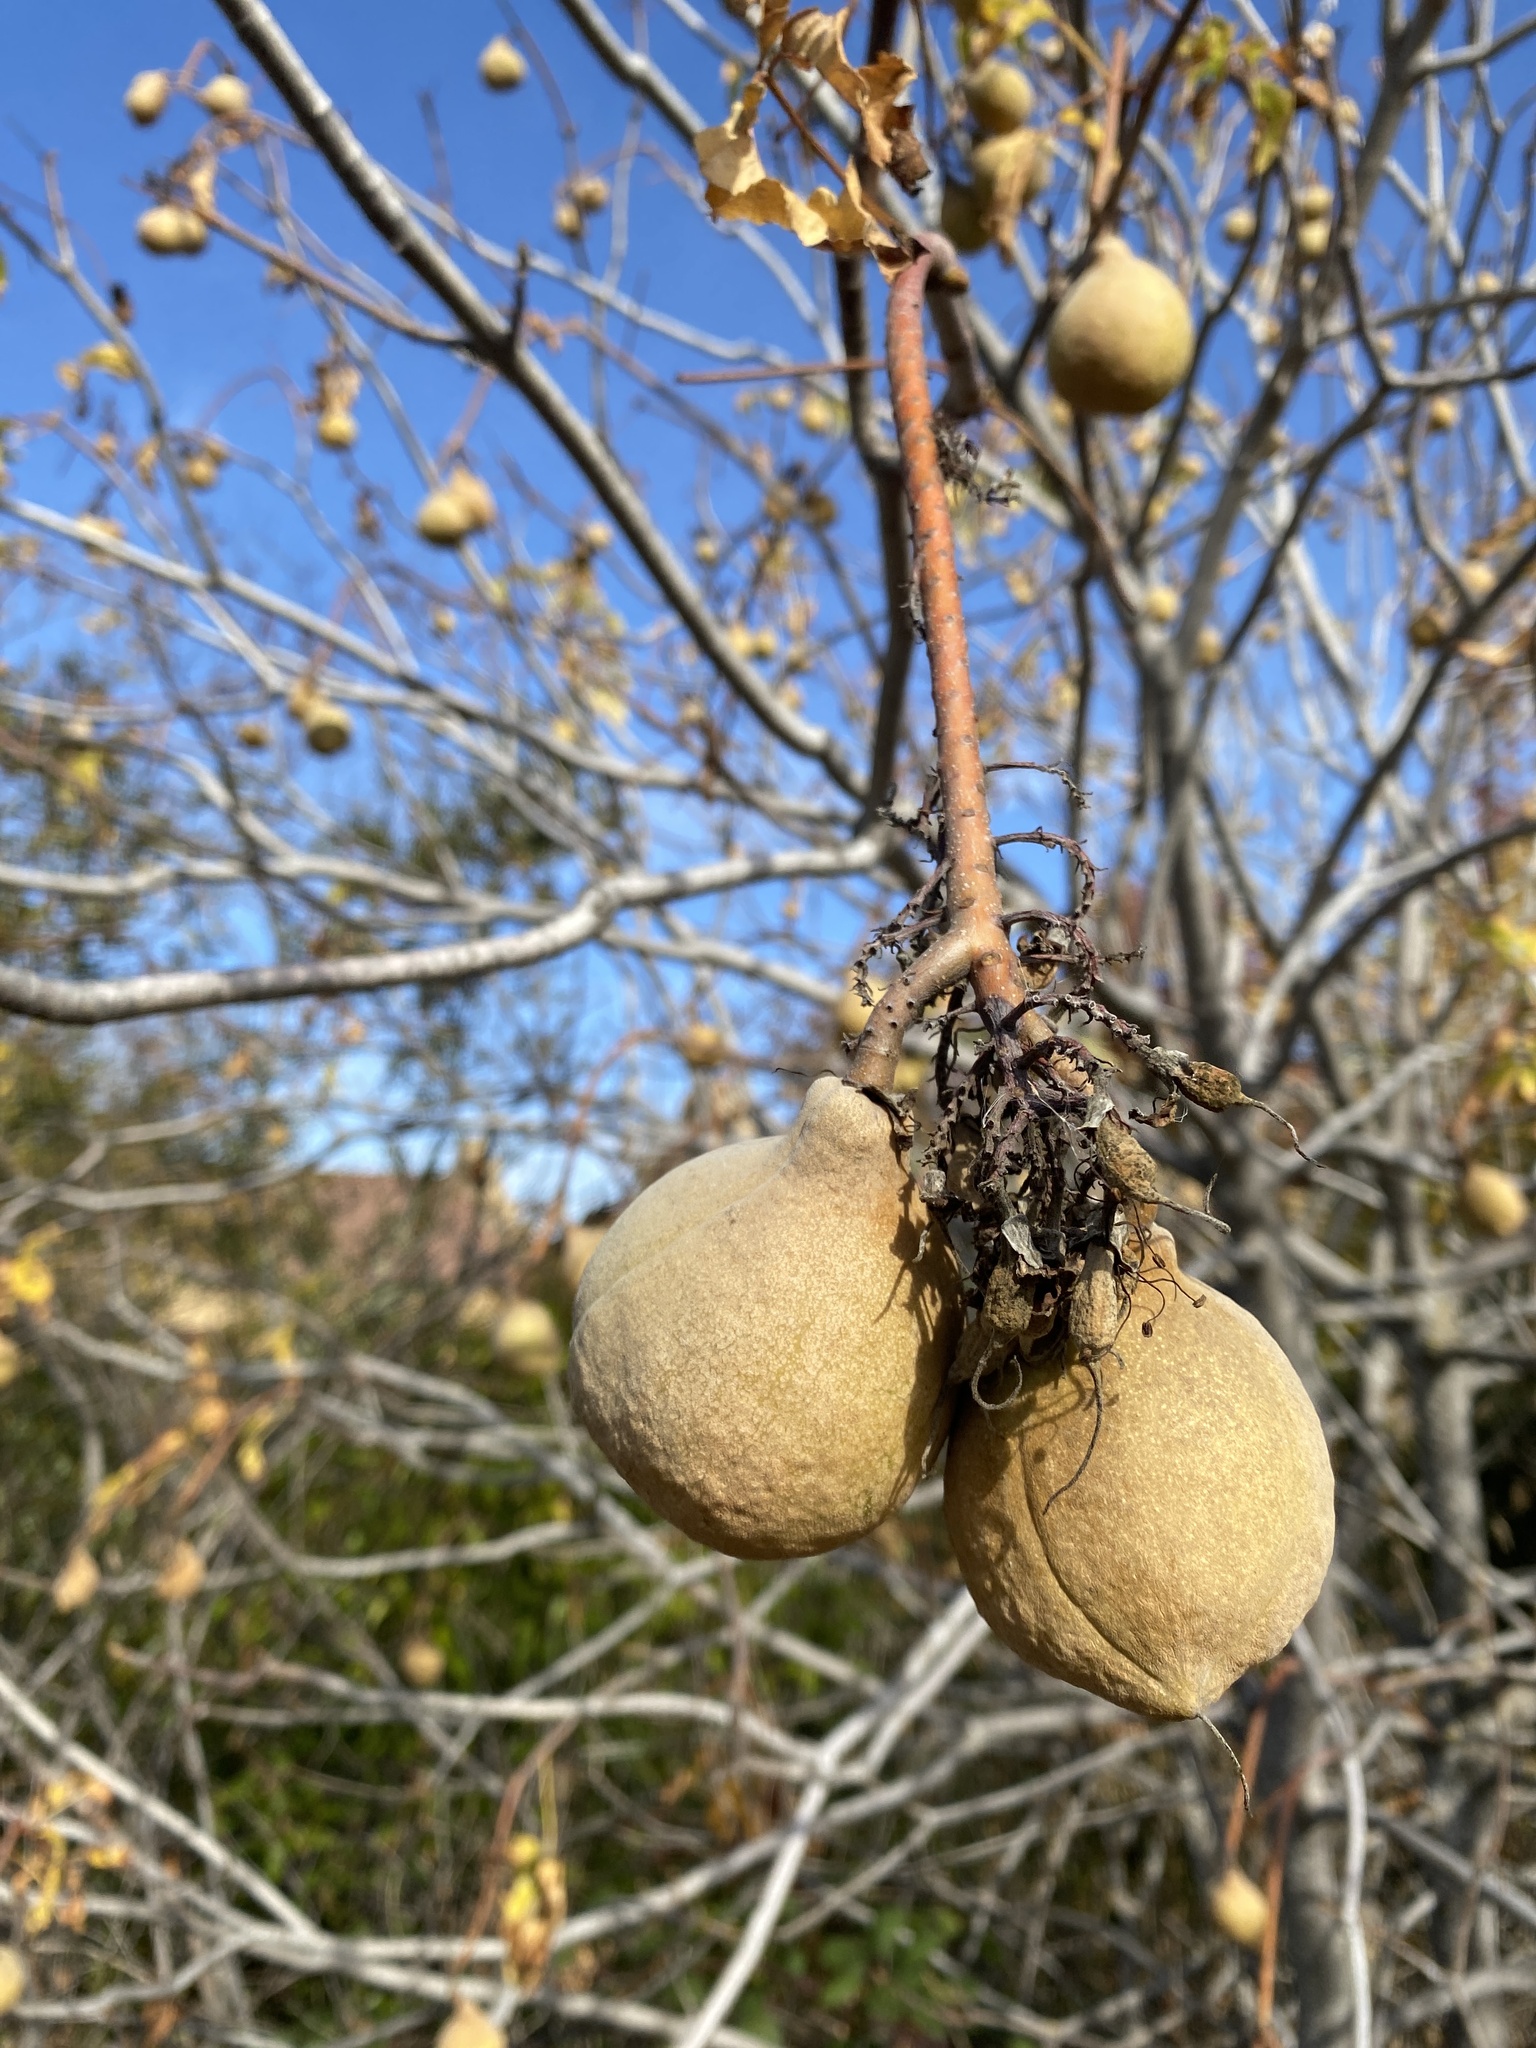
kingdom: Plantae
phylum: Tracheophyta
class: Magnoliopsida
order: Sapindales
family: Sapindaceae
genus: Aesculus
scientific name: Aesculus californica
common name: California buckeye
